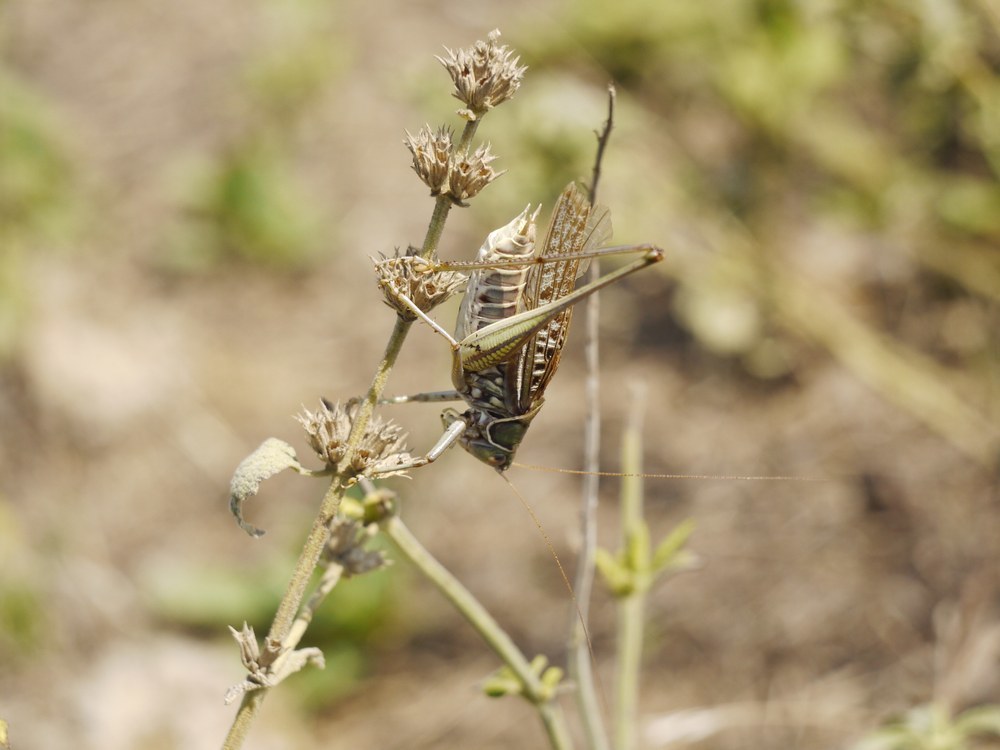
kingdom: Animalia
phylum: Arthropoda
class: Insecta
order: Orthoptera
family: Tettigoniidae
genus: Gampsocleis
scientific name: Gampsocleis glabra
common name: Heath bushcricket
